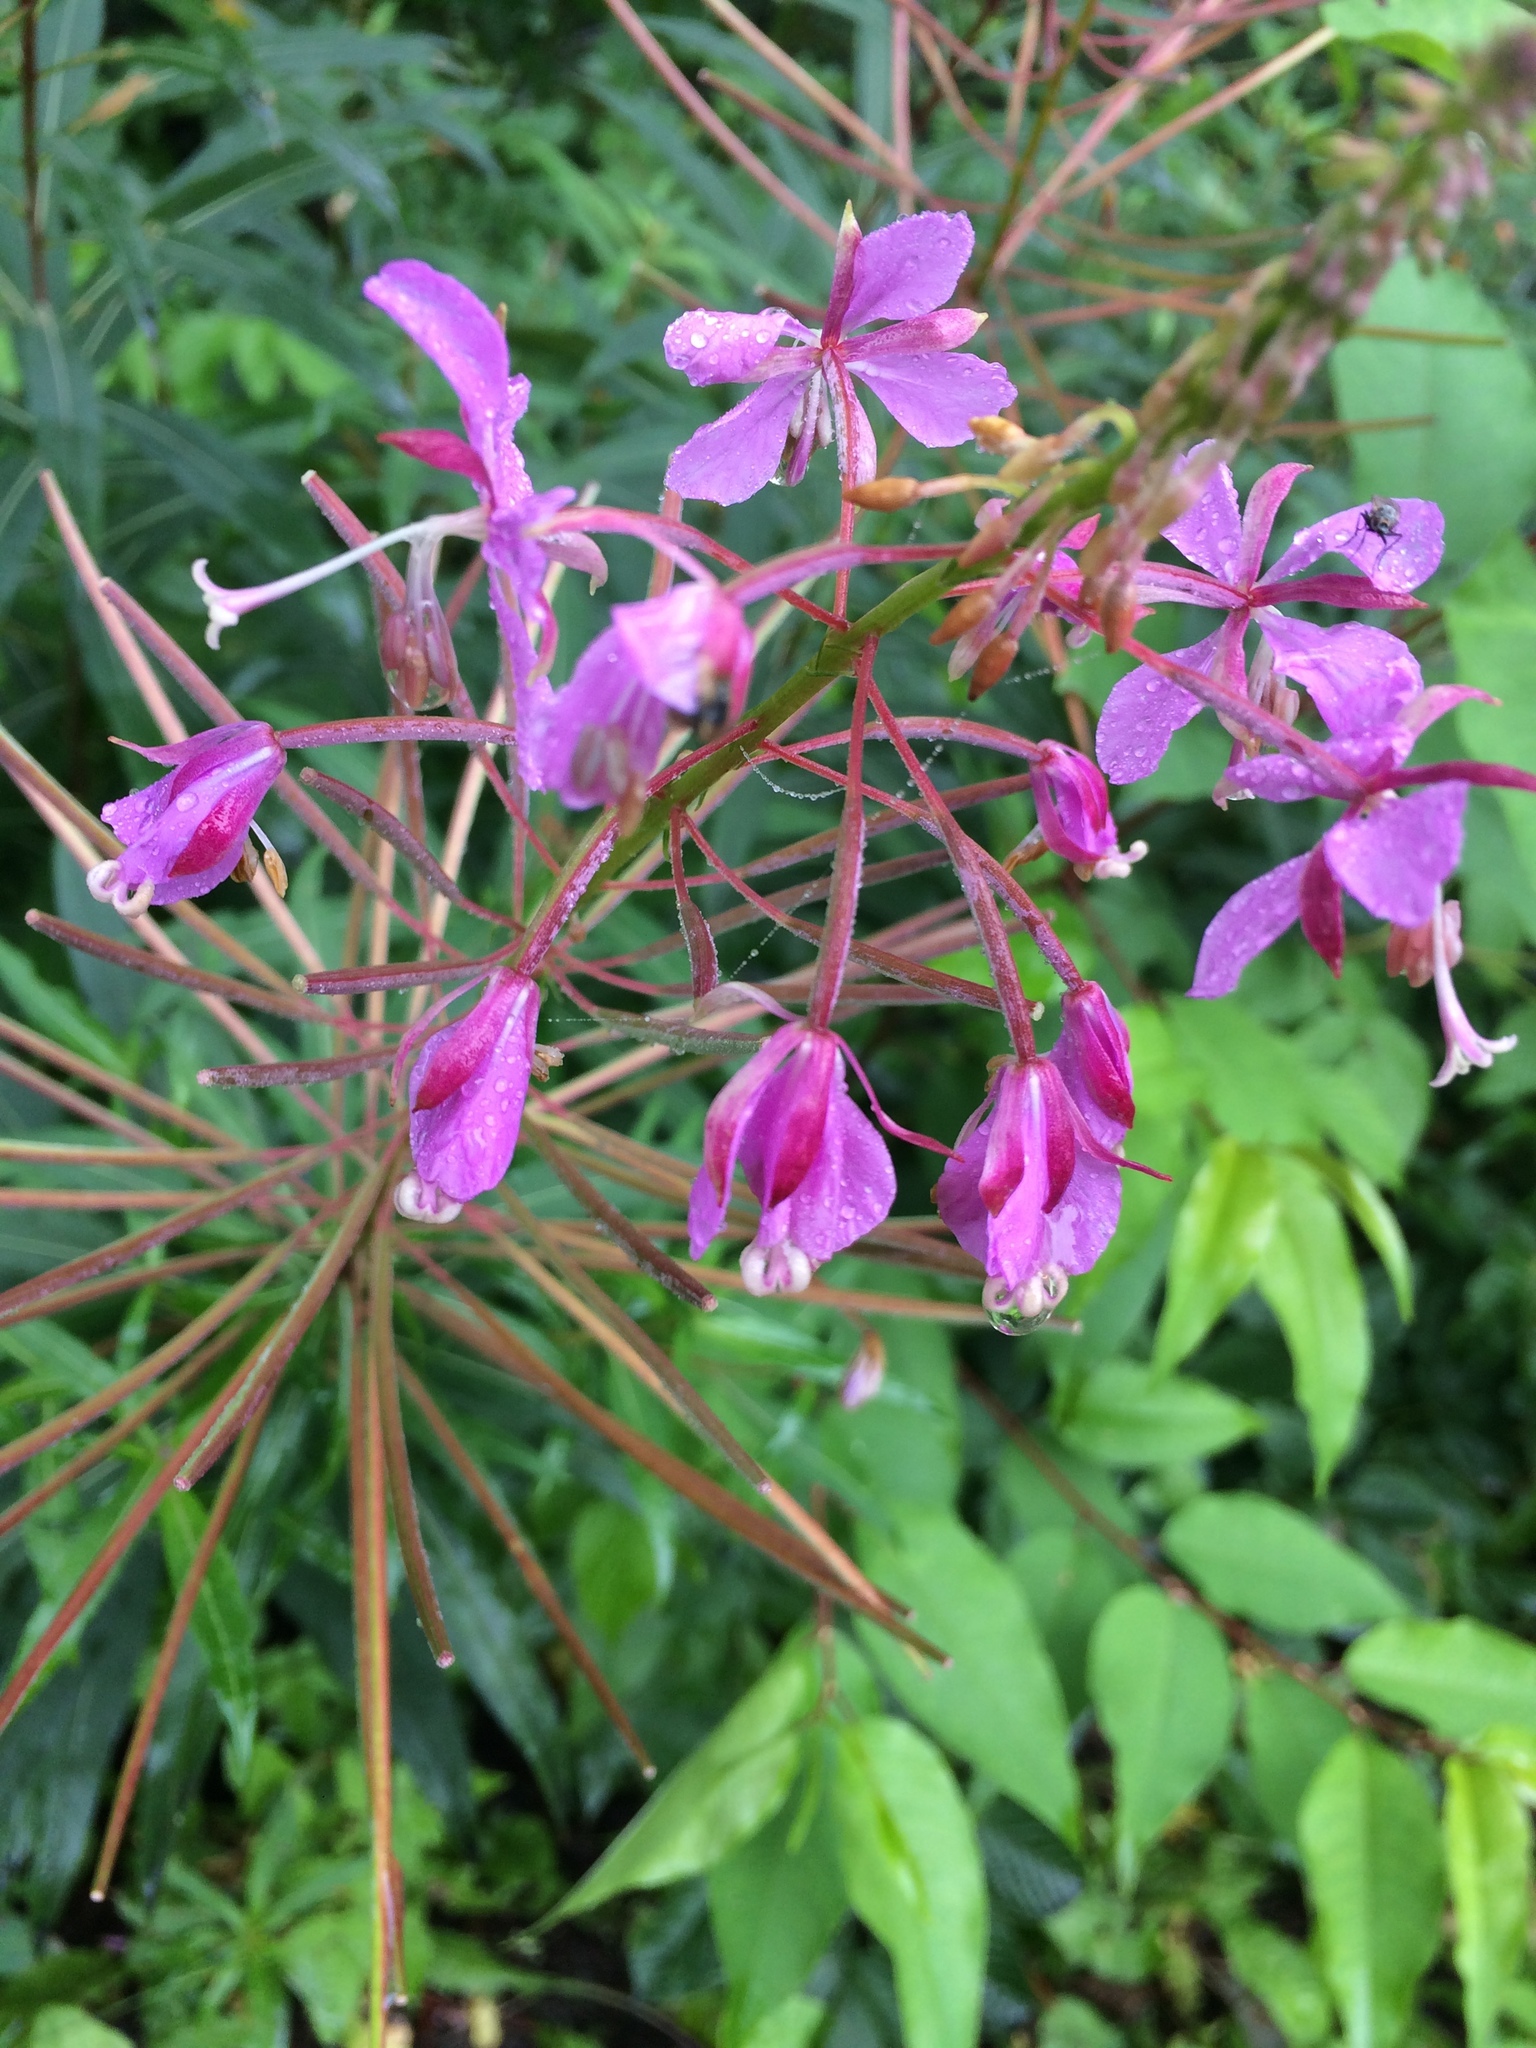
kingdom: Plantae
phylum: Tracheophyta
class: Magnoliopsida
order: Myrtales
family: Onagraceae
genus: Chamaenerion
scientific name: Chamaenerion angustifolium
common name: Fireweed
